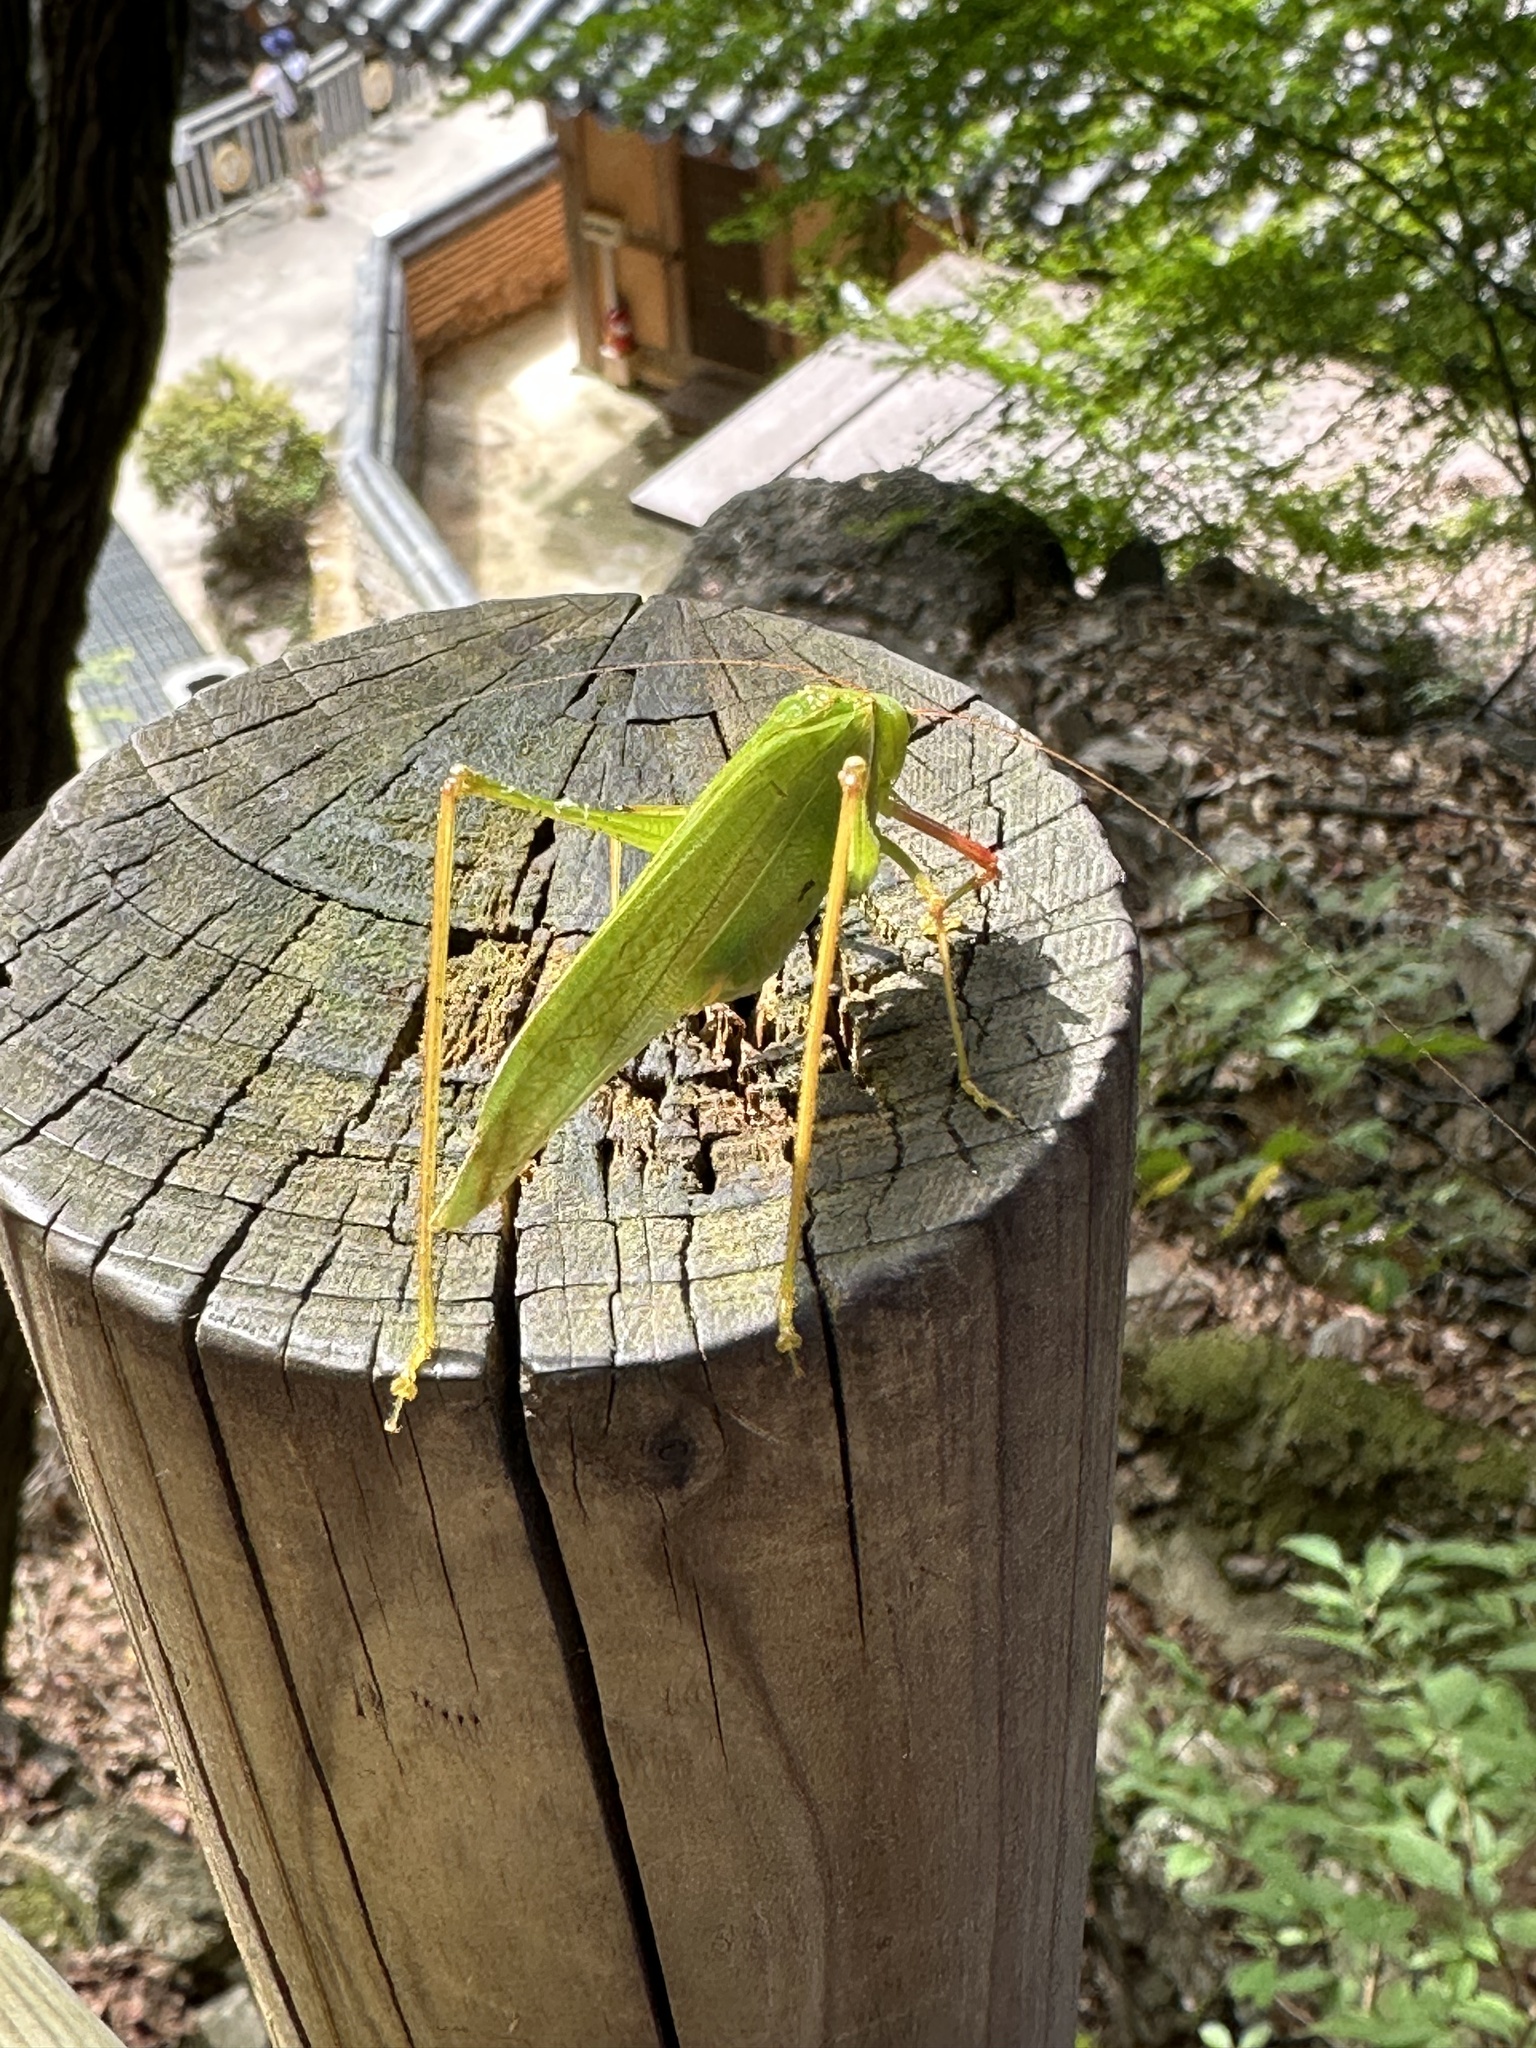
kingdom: Animalia
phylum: Arthropoda
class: Insecta
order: Orthoptera
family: Tettigoniidae
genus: Sinochlora
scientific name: Sinochlora longifissa
